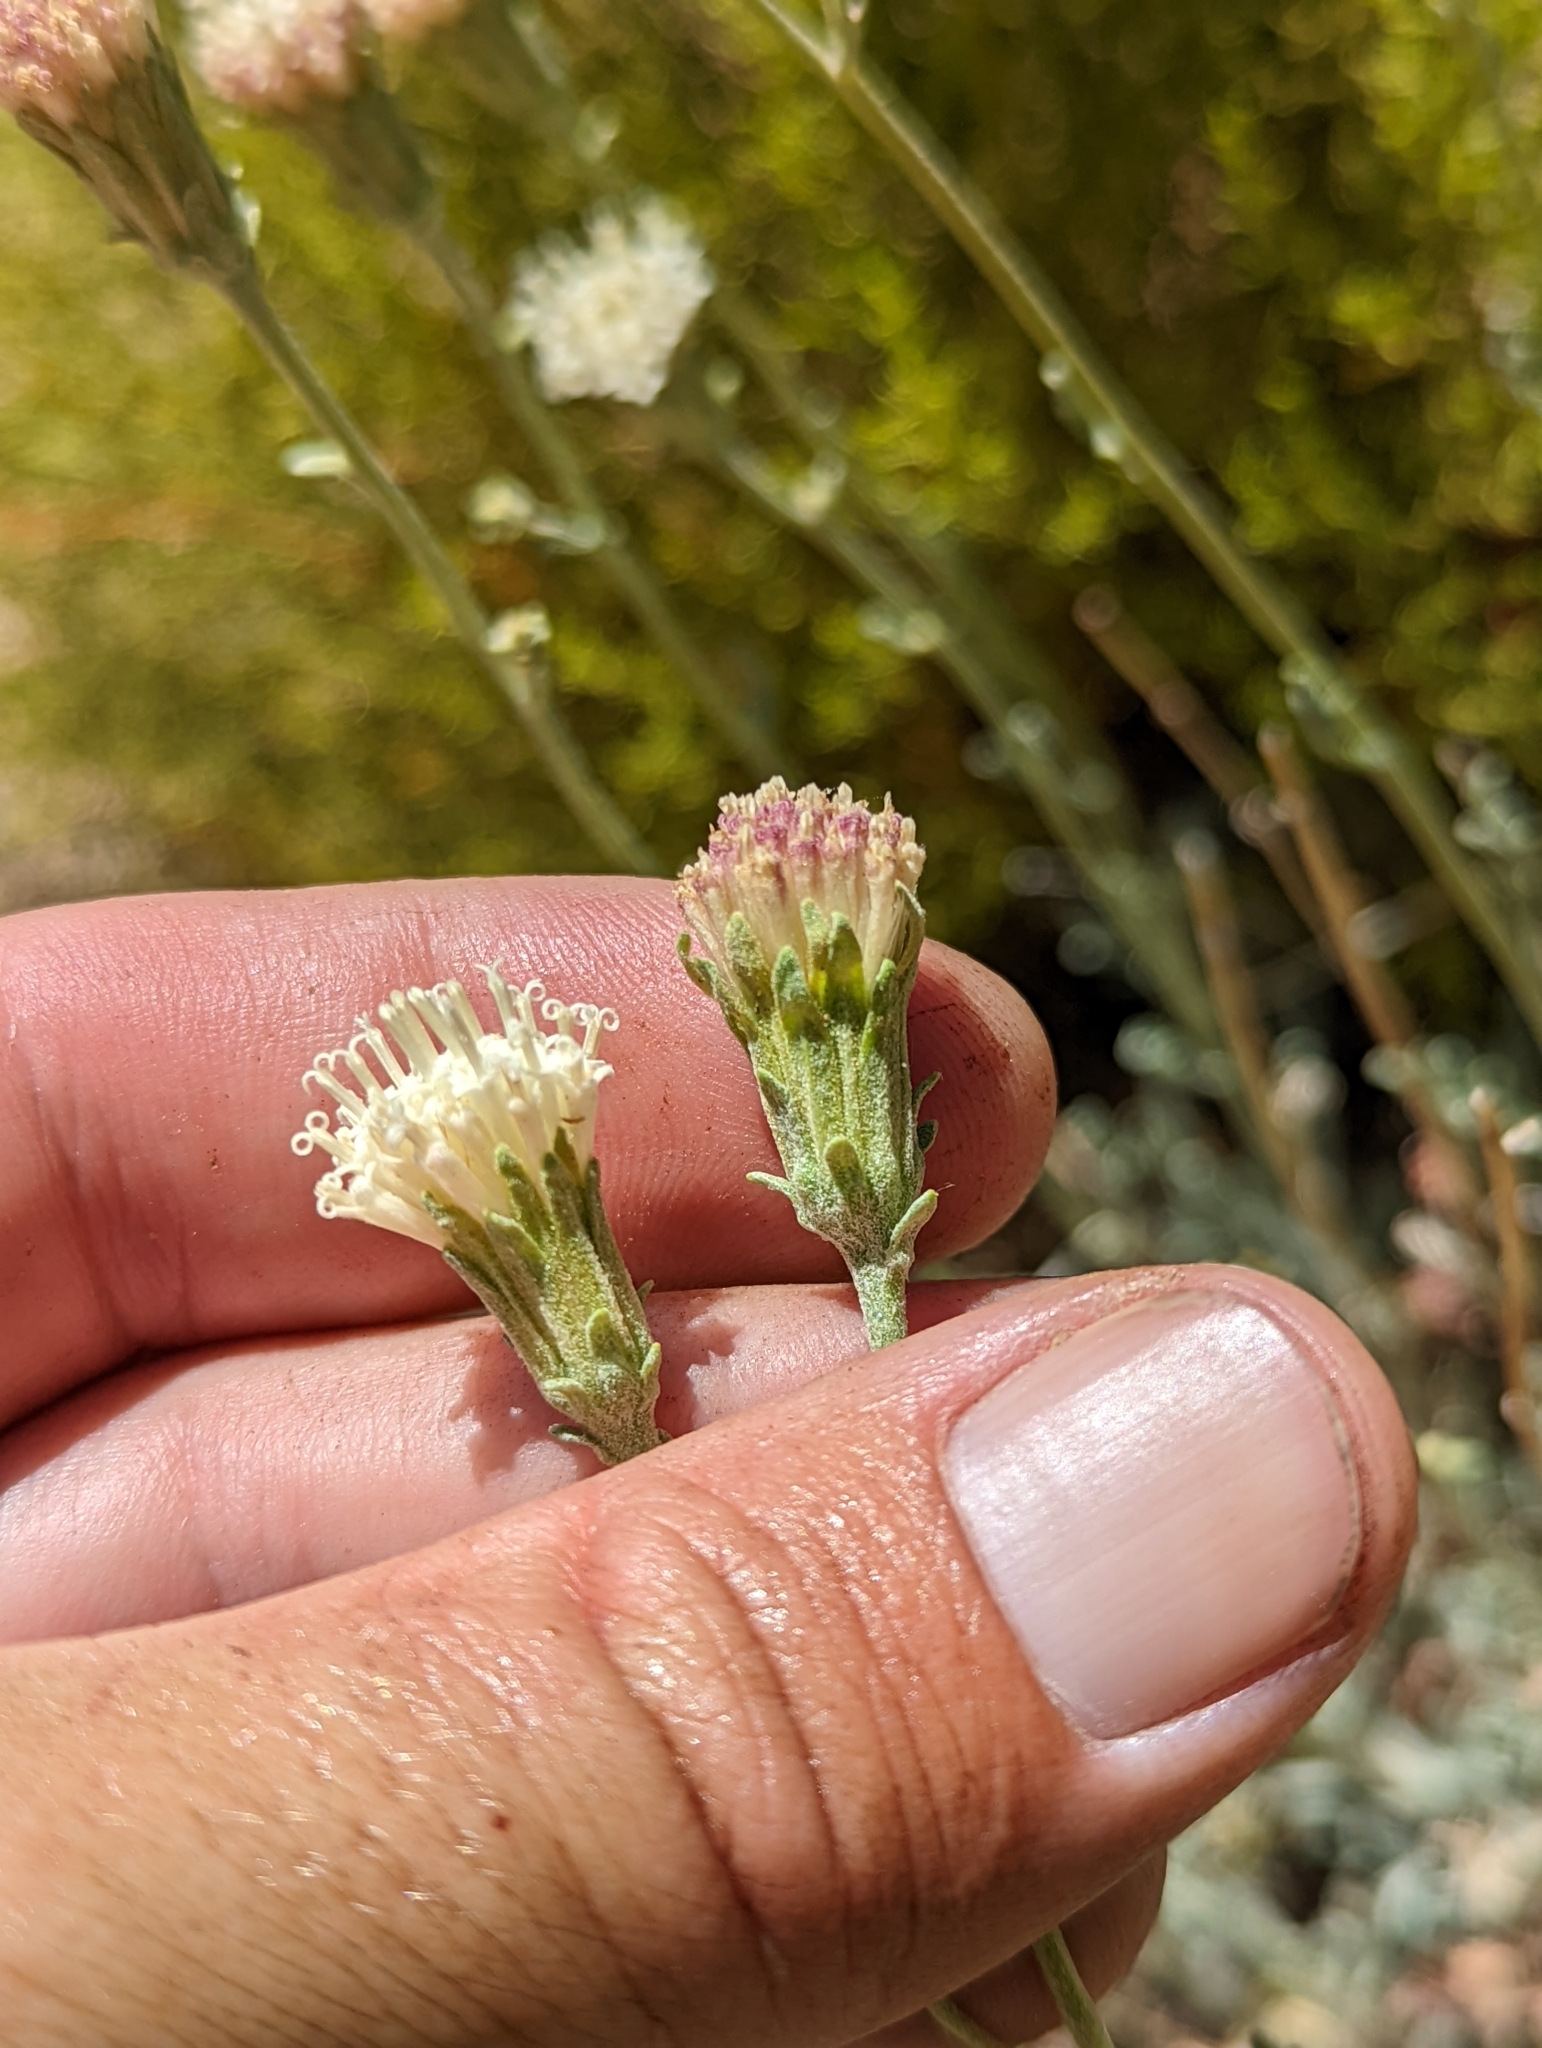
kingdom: Plantae
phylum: Tracheophyta
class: Magnoliopsida
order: Asterales
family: Asteraceae
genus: Chaenactis
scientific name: Chaenactis parishii
